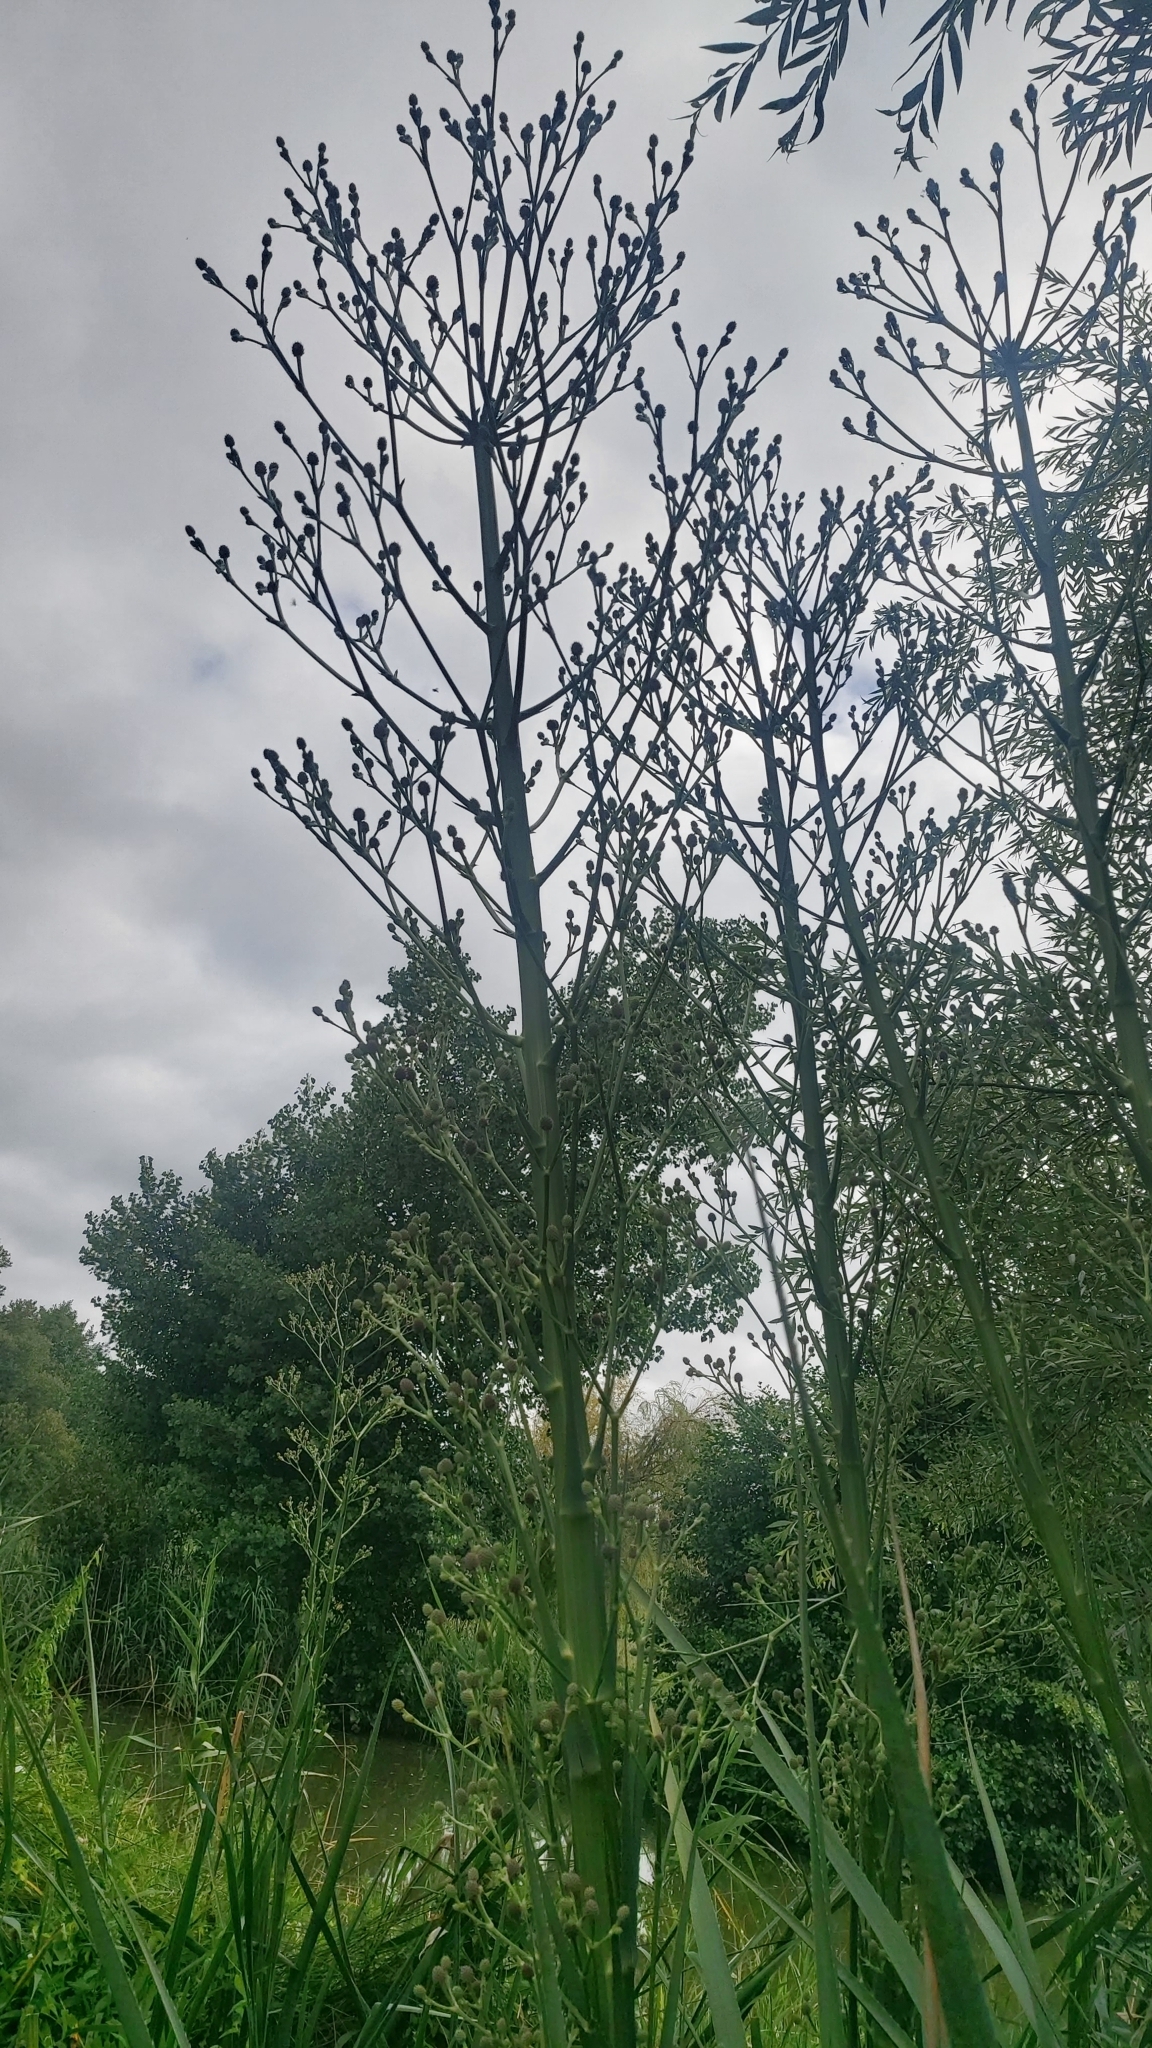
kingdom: Plantae
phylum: Tracheophyta
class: Magnoliopsida
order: Apiales
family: Apiaceae
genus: Eryngium
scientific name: Eryngium pandanifolium
